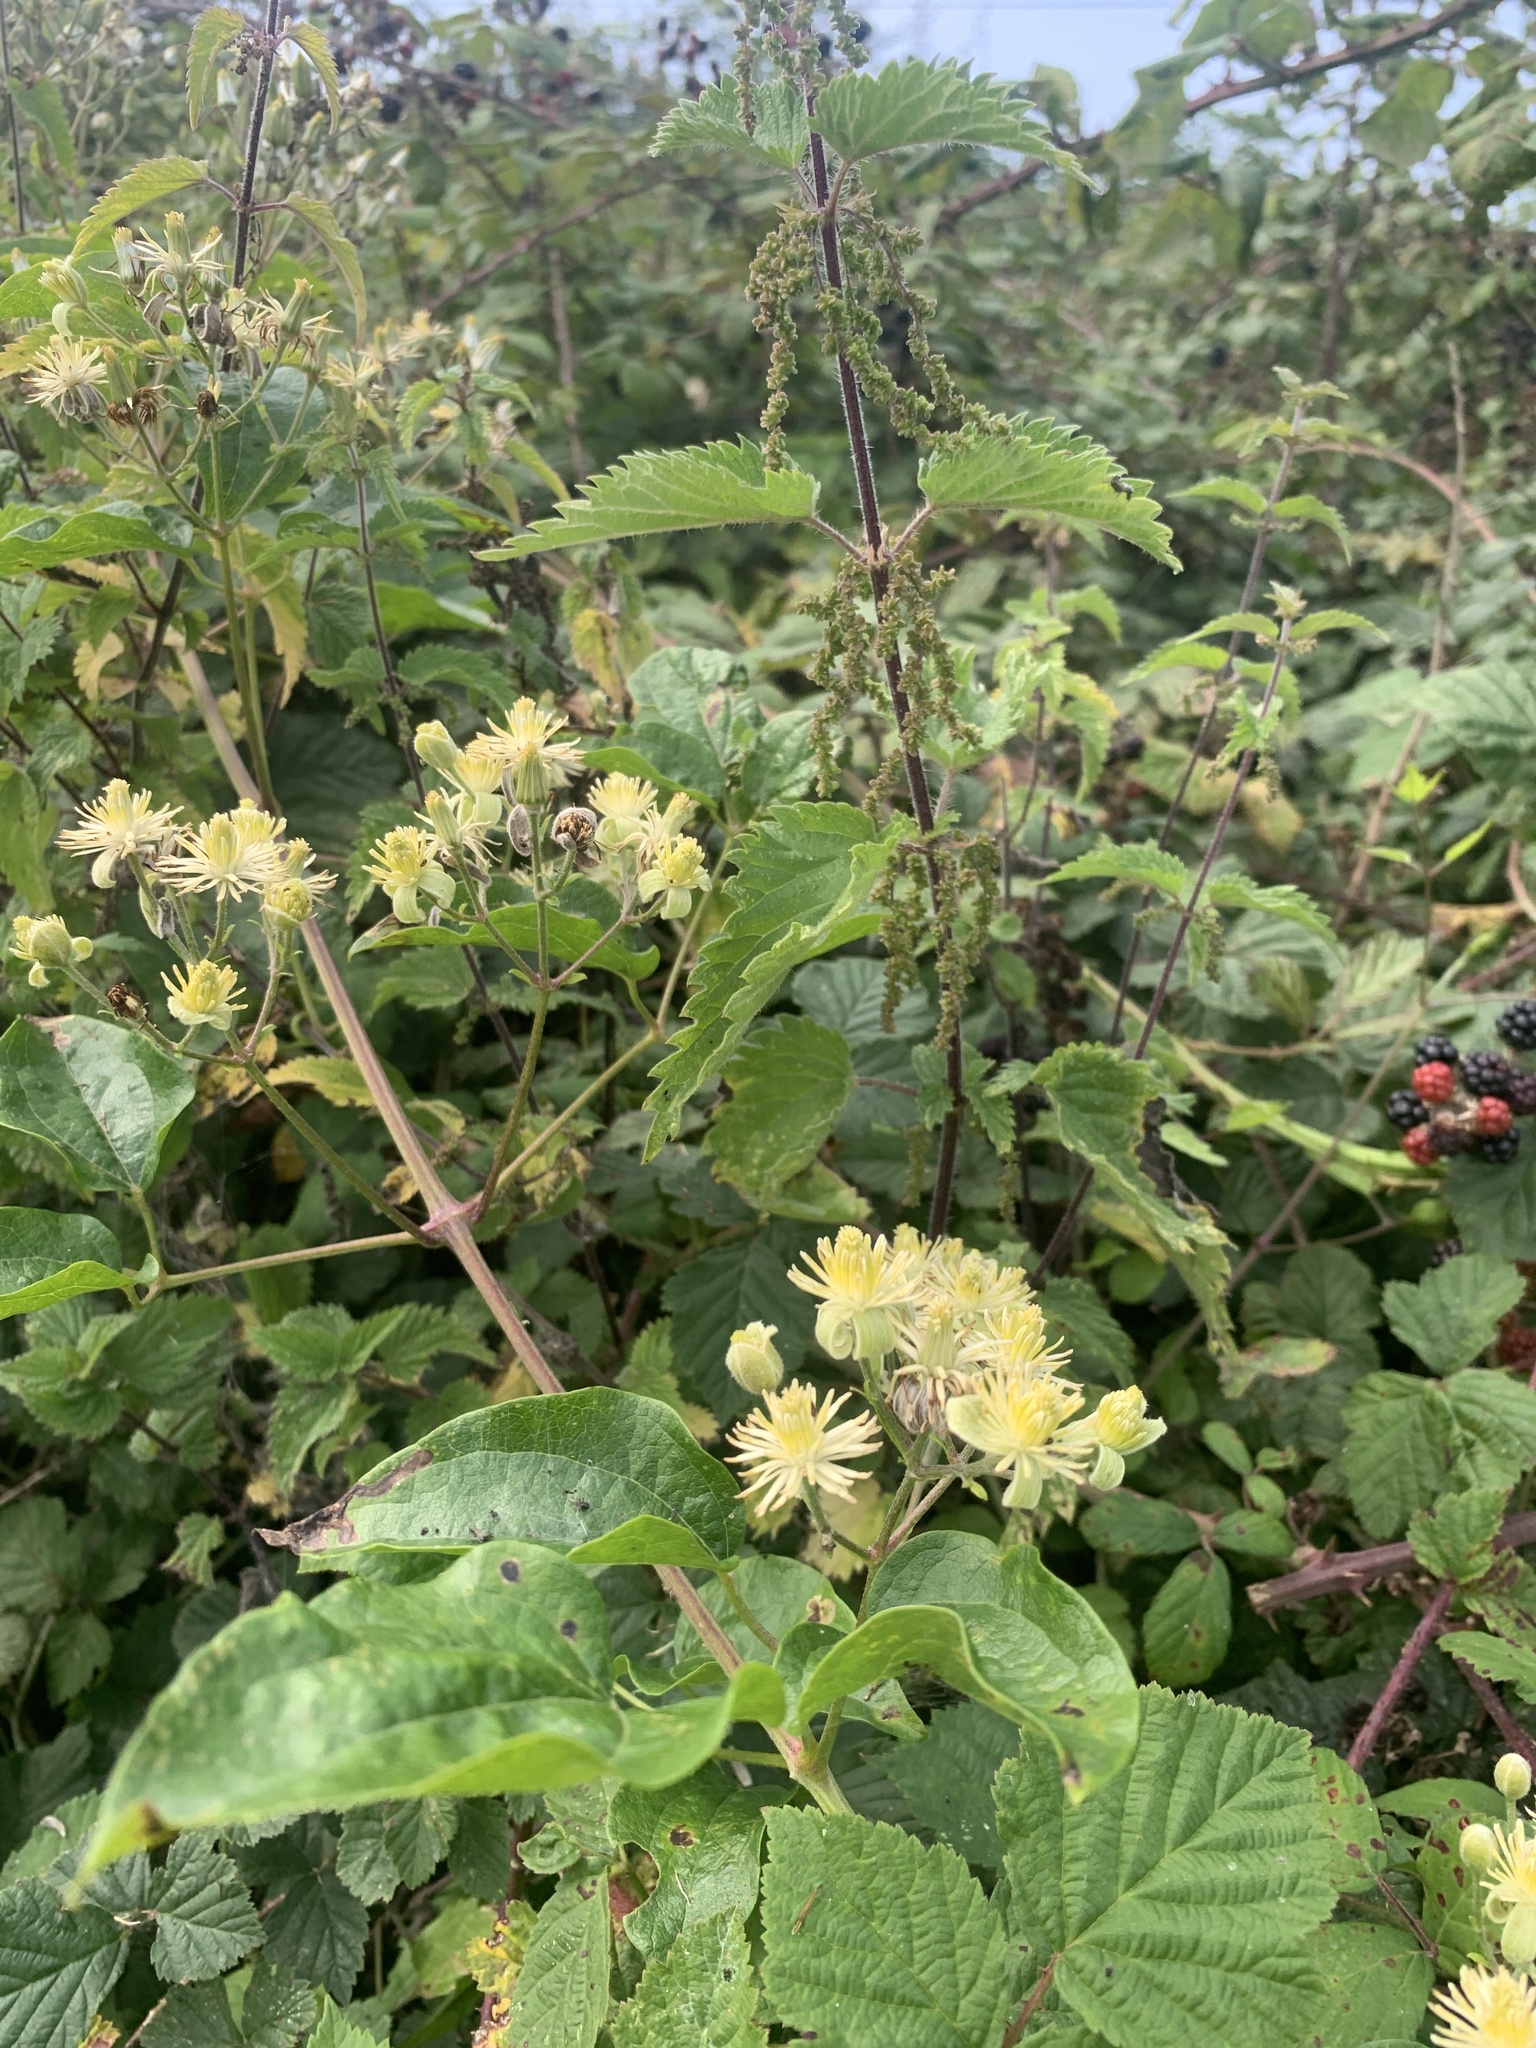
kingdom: Plantae
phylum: Tracheophyta
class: Magnoliopsida
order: Ranunculales
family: Ranunculaceae
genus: Clematis
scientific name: Clematis vitalba
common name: Evergreen clematis
